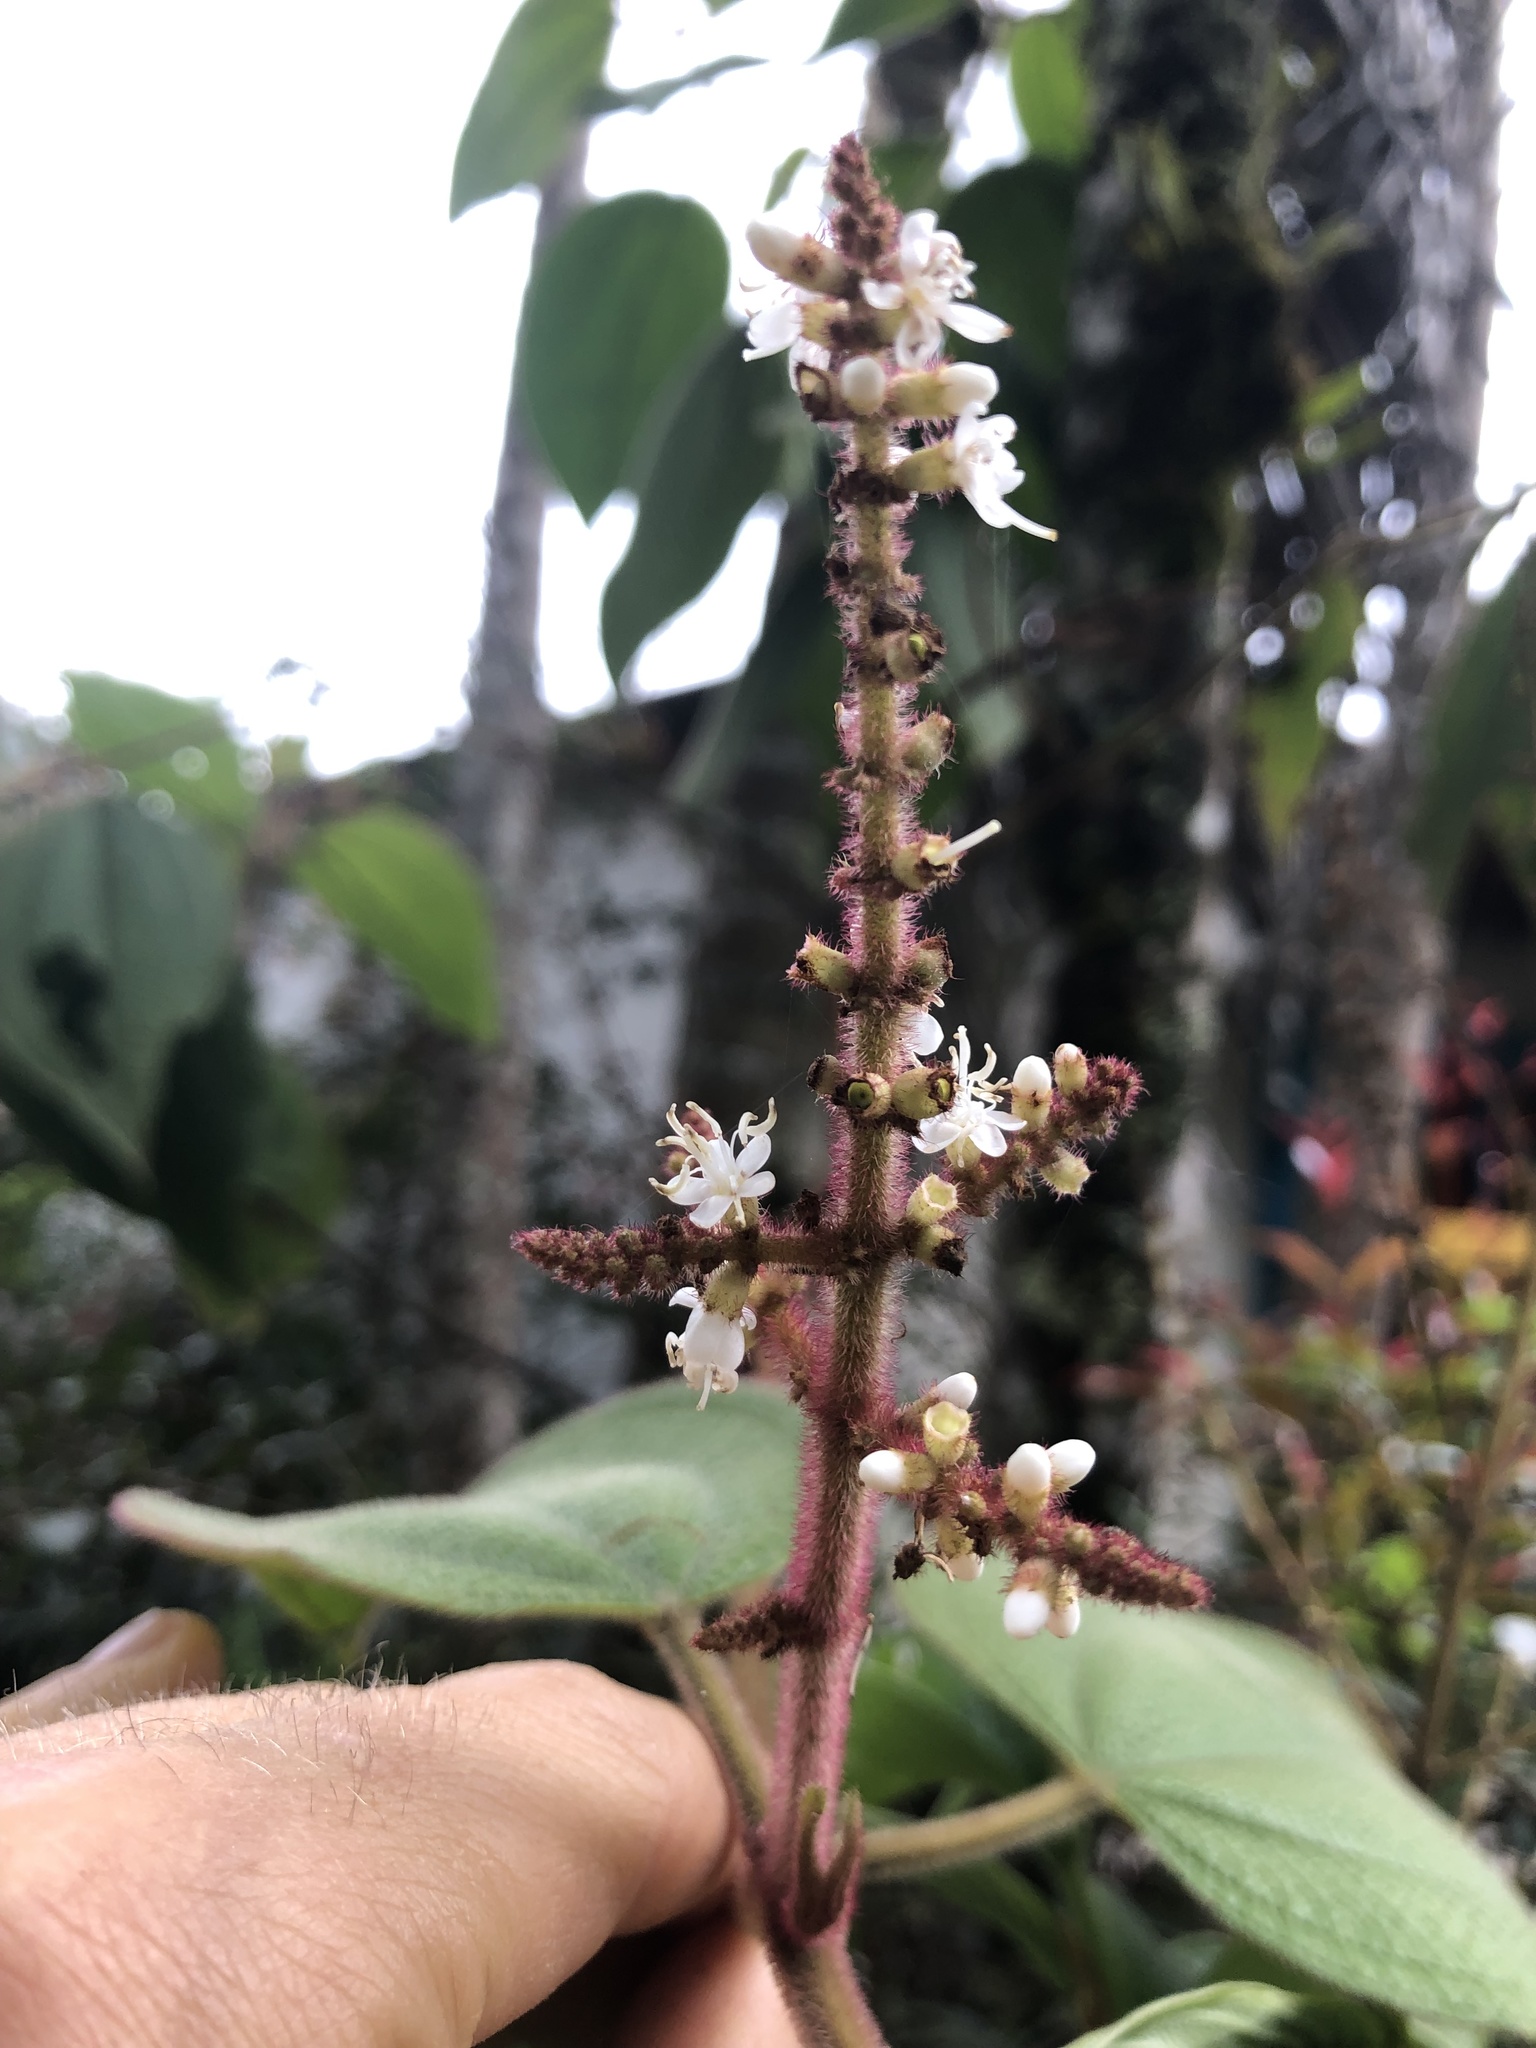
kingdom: Plantae
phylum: Tracheophyta
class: Magnoliopsida
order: Myrtales
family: Melastomataceae
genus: Miconia
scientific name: Miconia aeruginosa
